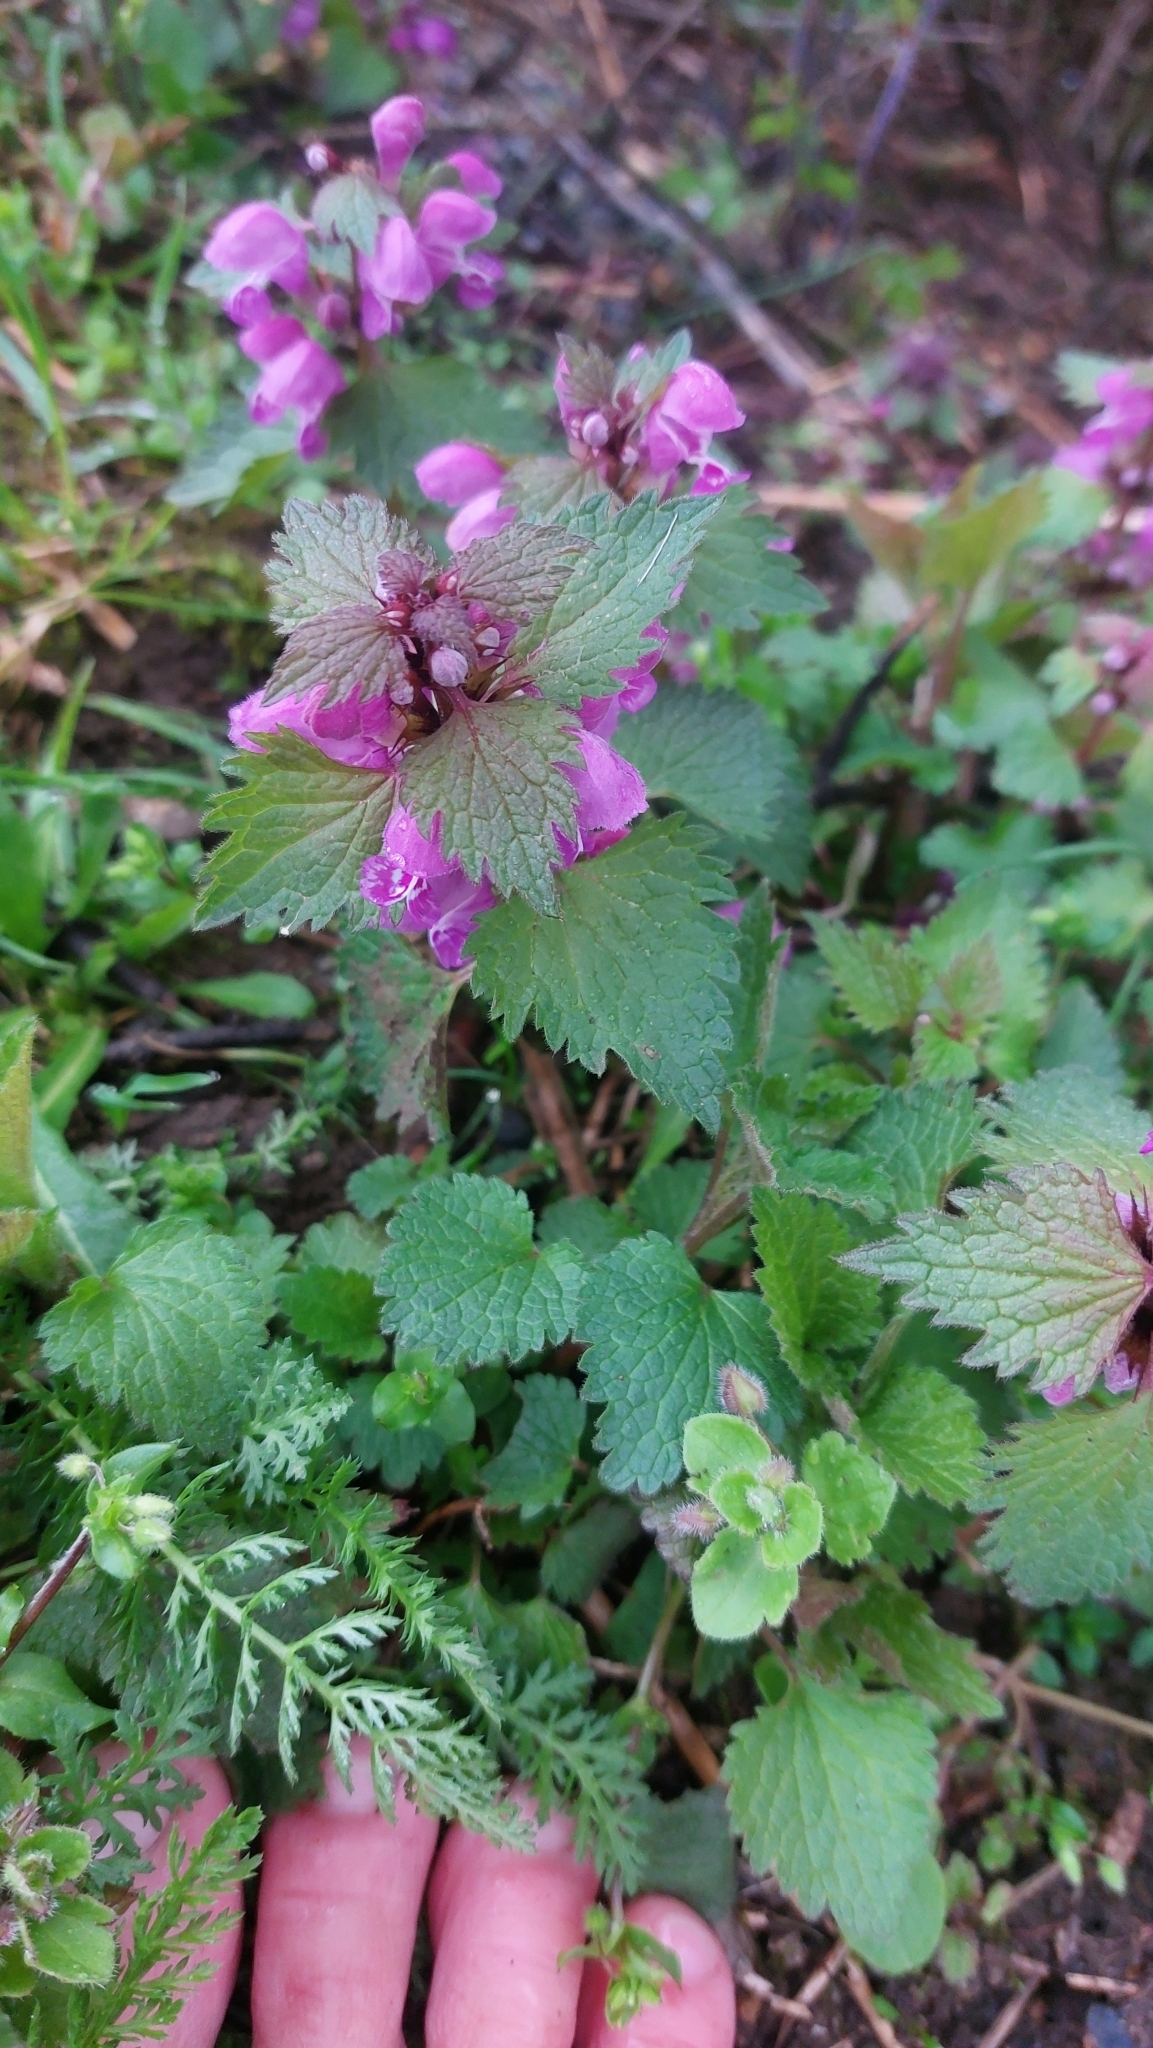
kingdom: Plantae
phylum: Tracheophyta
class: Magnoliopsida
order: Lamiales
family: Lamiaceae
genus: Lamium
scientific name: Lamium maculatum
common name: Spotted dead-nettle
